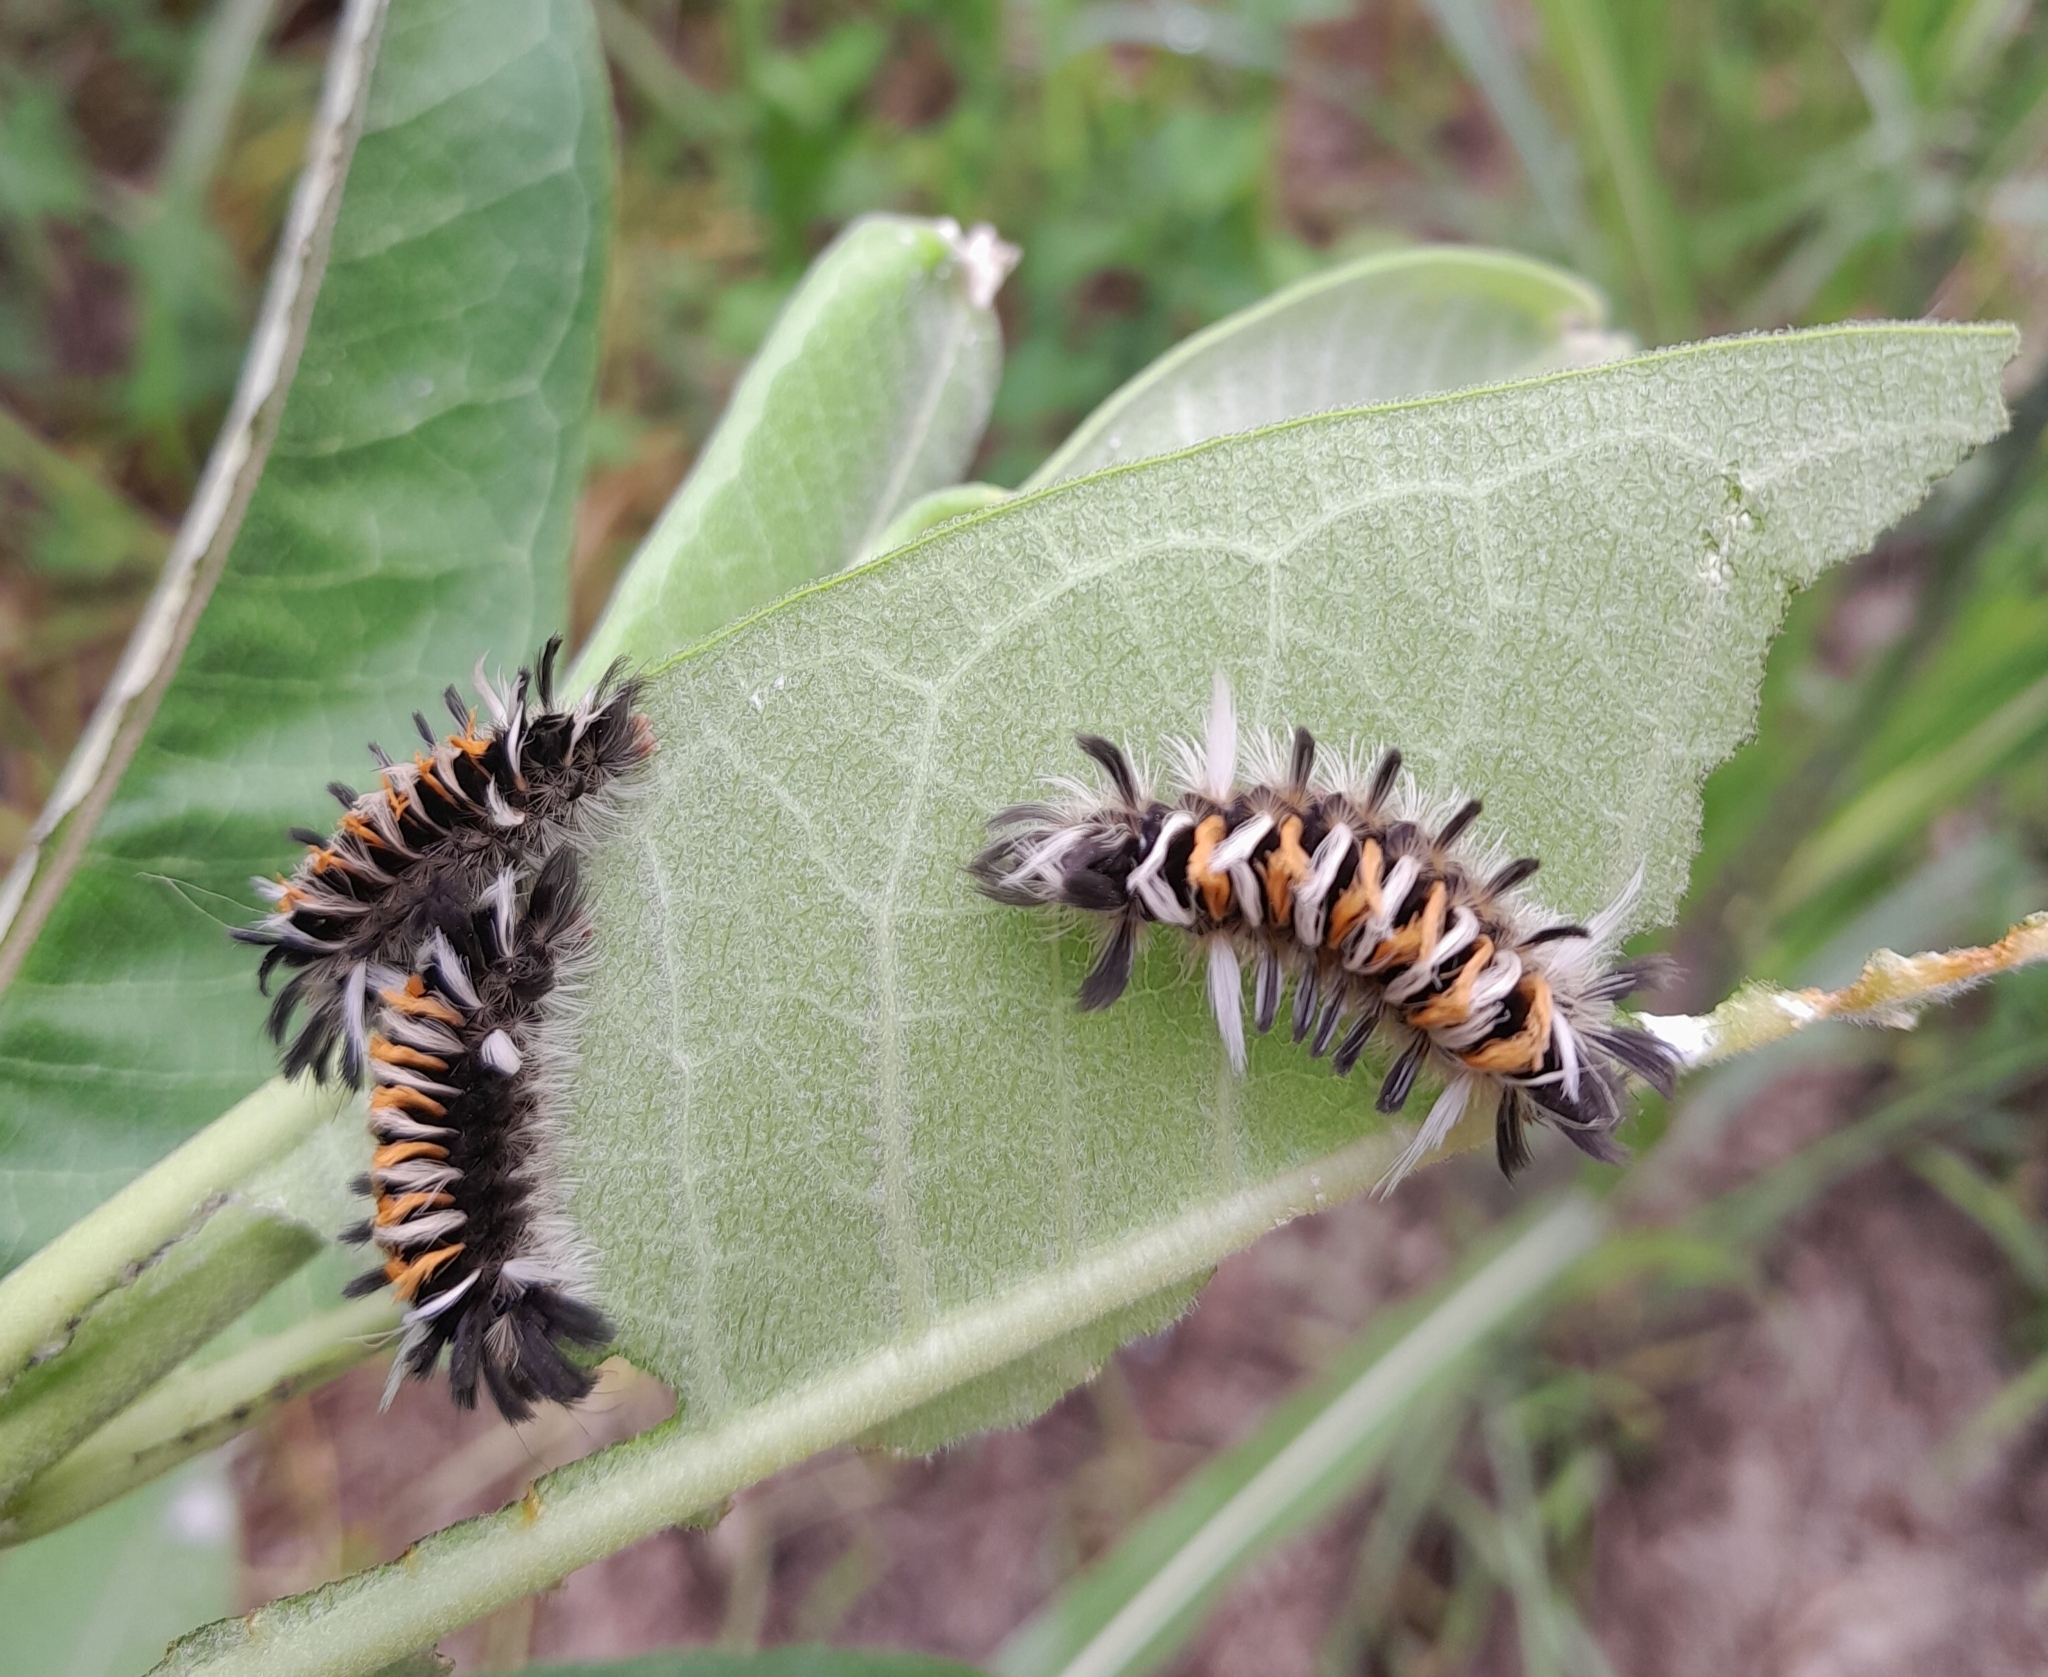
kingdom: Animalia
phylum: Arthropoda
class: Insecta
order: Lepidoptera
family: Erebidae
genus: Euchaetes
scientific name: Euchaetes egle
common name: Milkweed tussock moth
